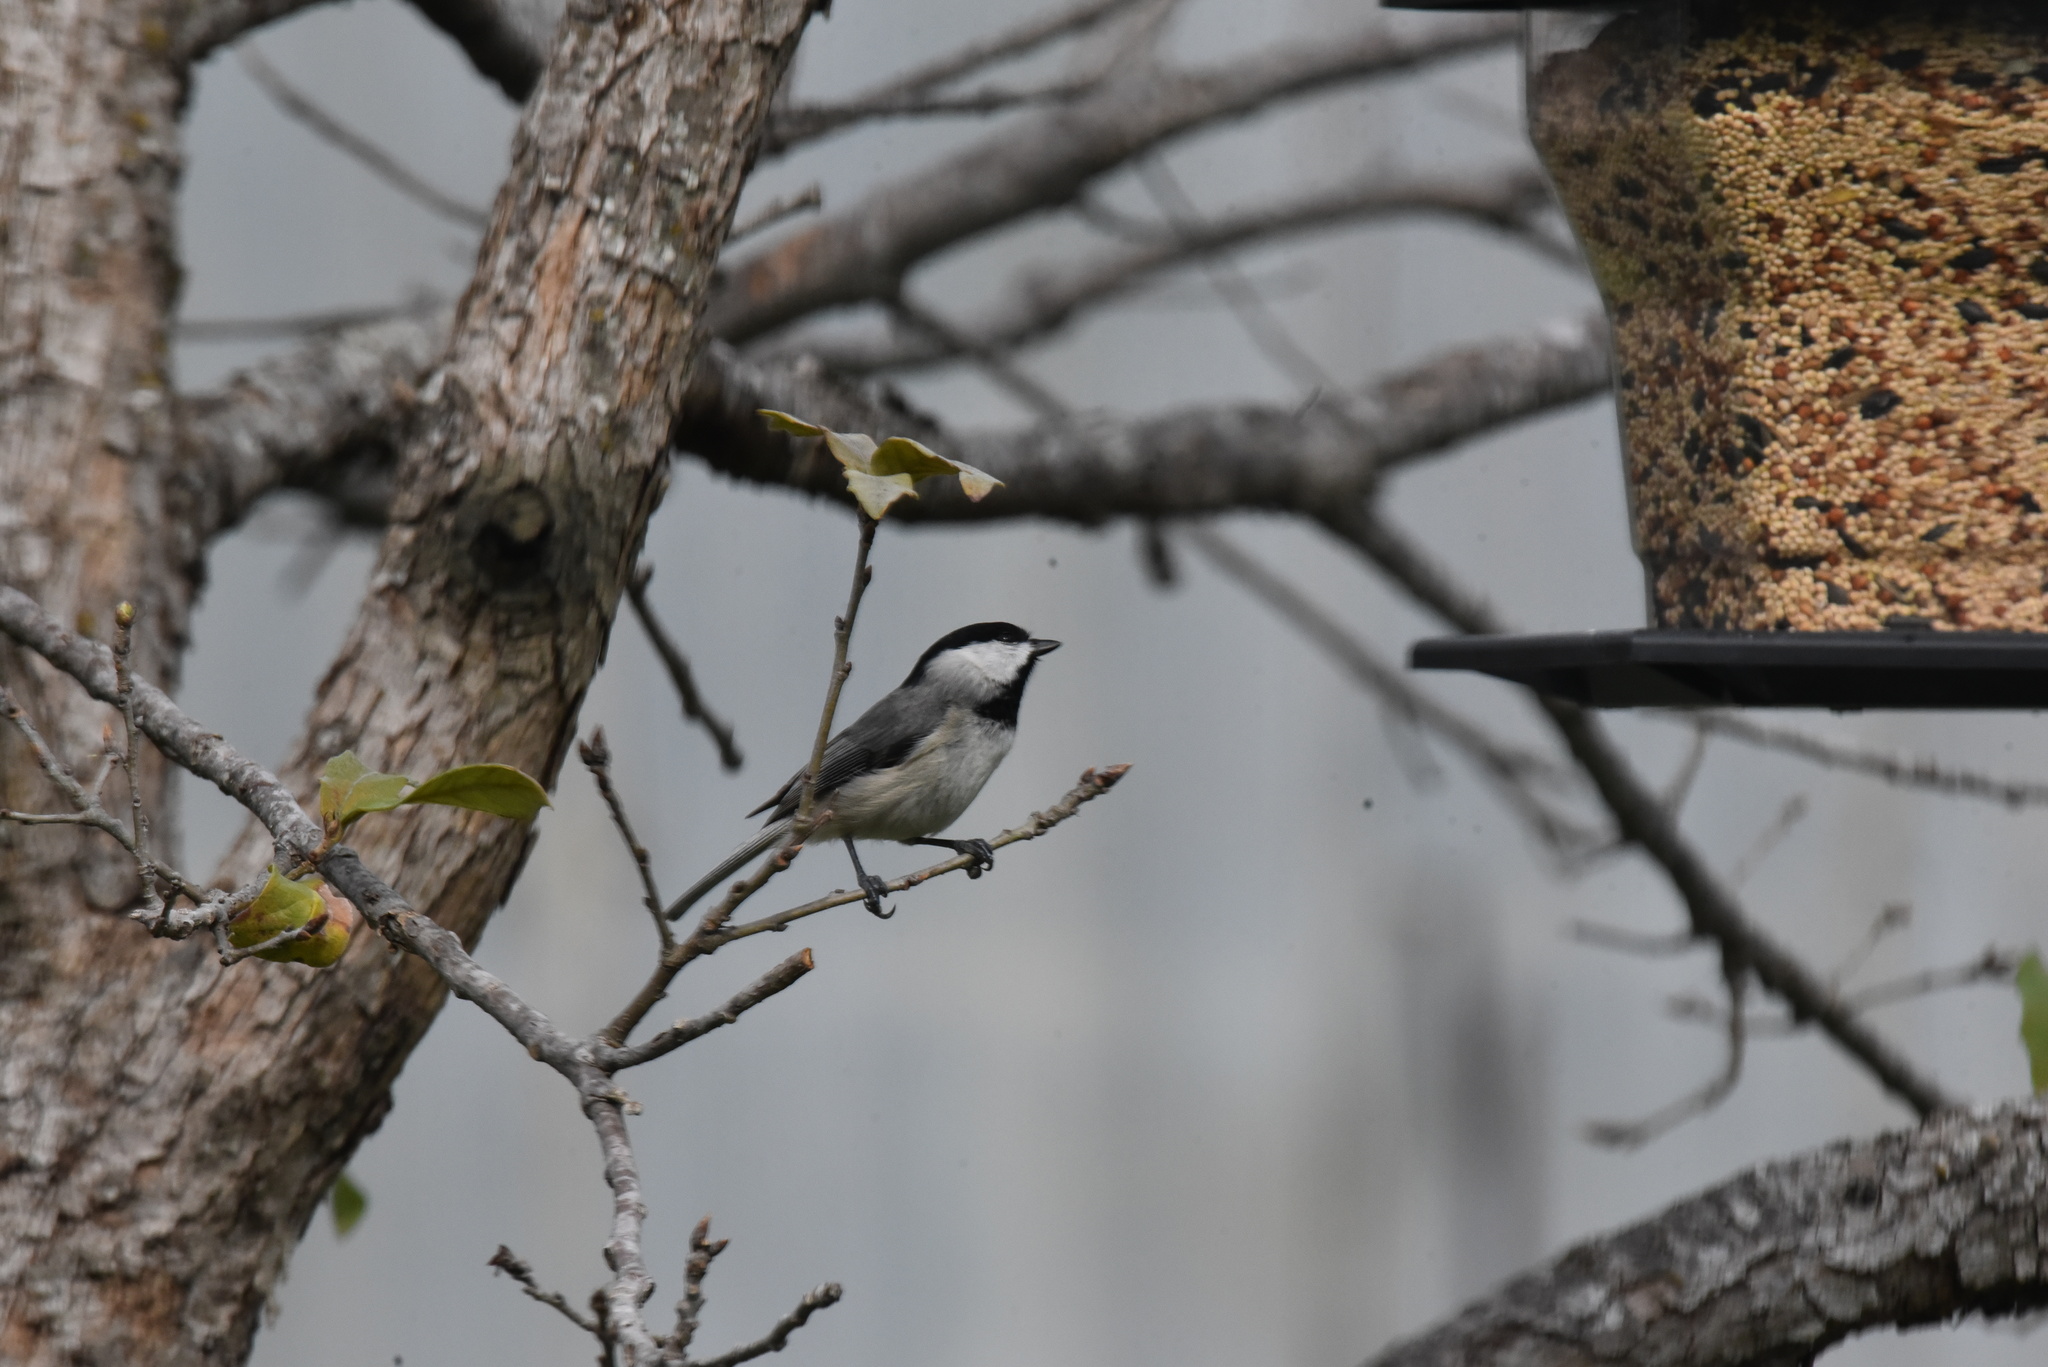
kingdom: Animalia
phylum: Chordata
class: Aves
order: Passeriformes
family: Paridae
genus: Poecile
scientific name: Poecile carolinensis
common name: Carolina chickadee
